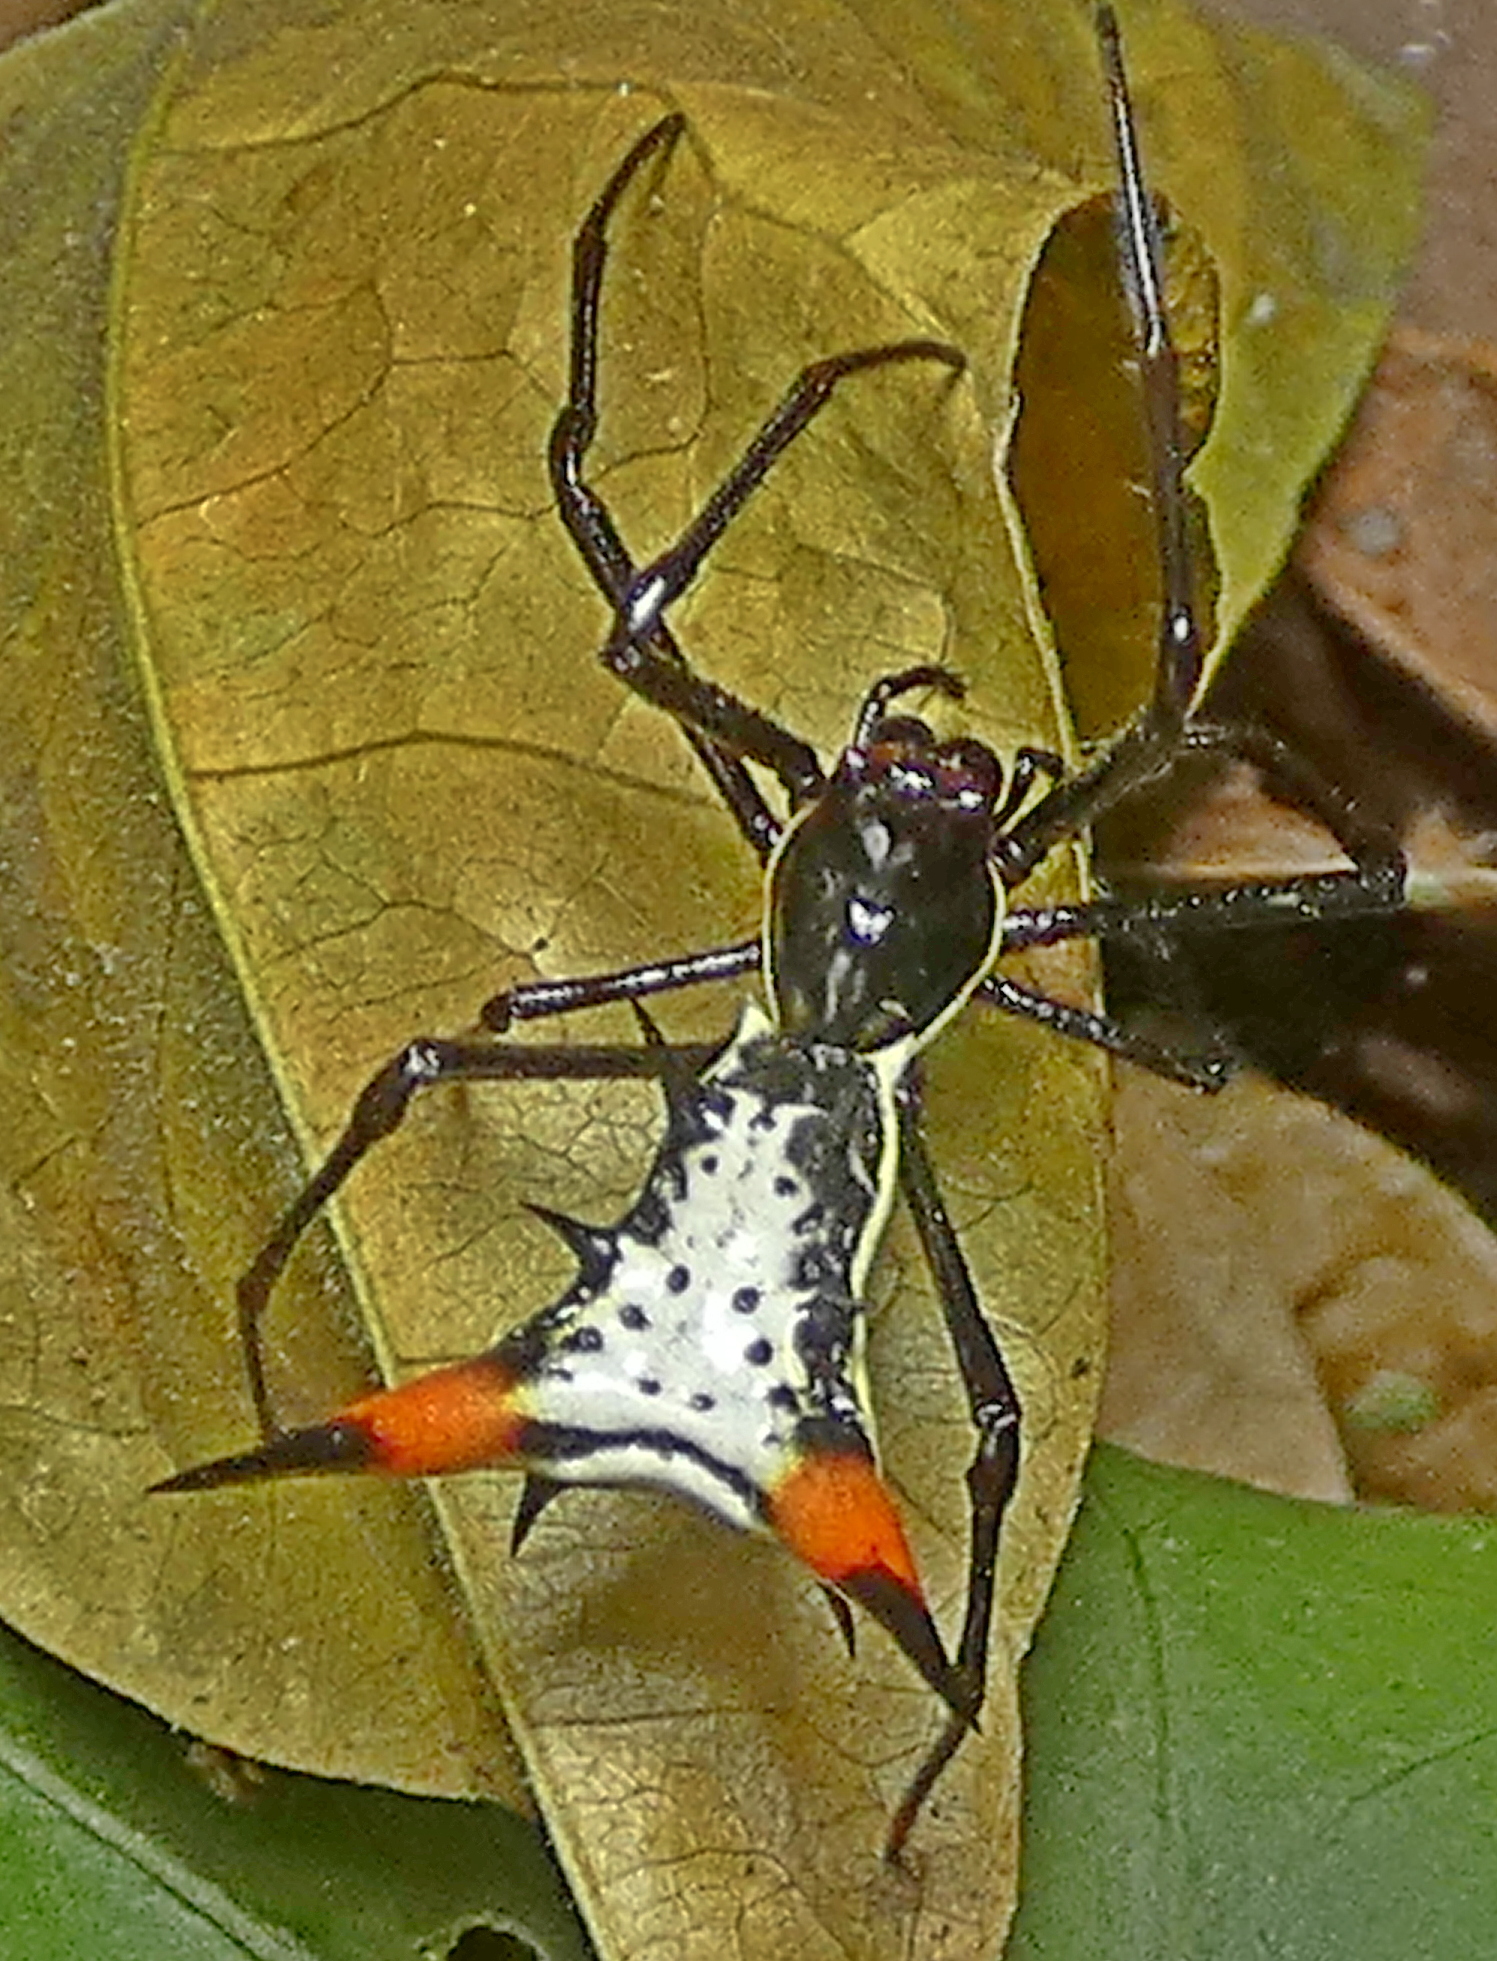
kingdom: Animalia
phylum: Arthropoda
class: Arachnida
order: Araneae
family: Araneidae
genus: Micrathena
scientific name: Micrathena schreibersi
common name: Orb weavers
